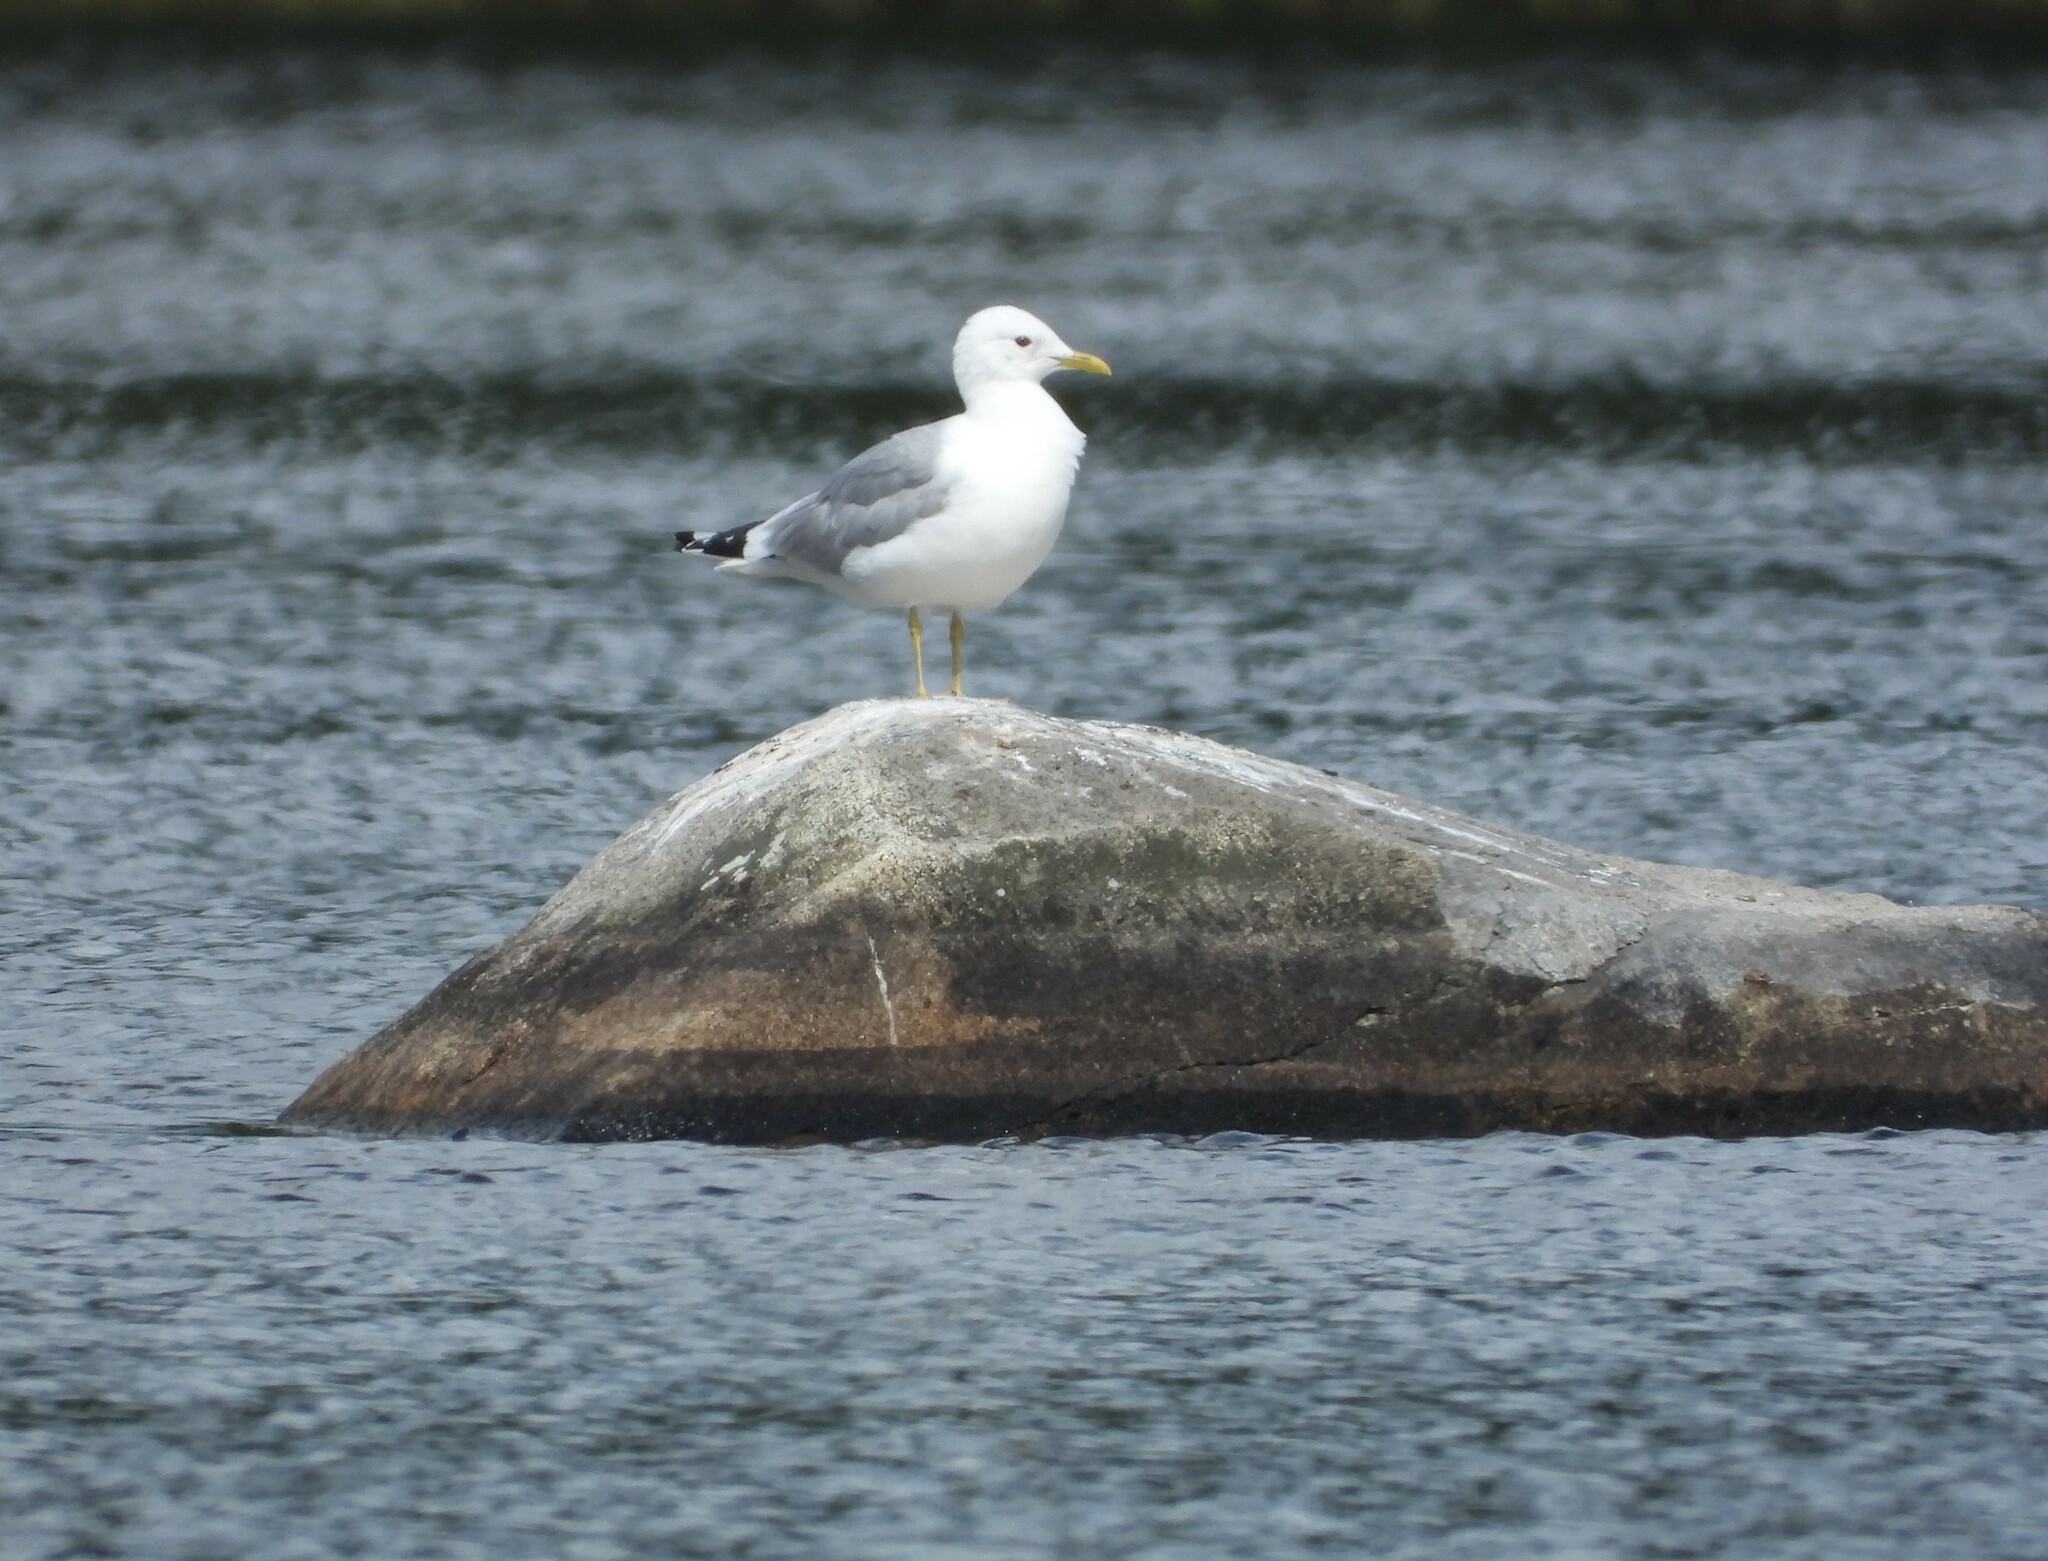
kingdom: Animalia
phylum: Chordata
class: Aves
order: Charadriiformes
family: Laridae
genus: Larus
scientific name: Larus canus
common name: Mew gull
